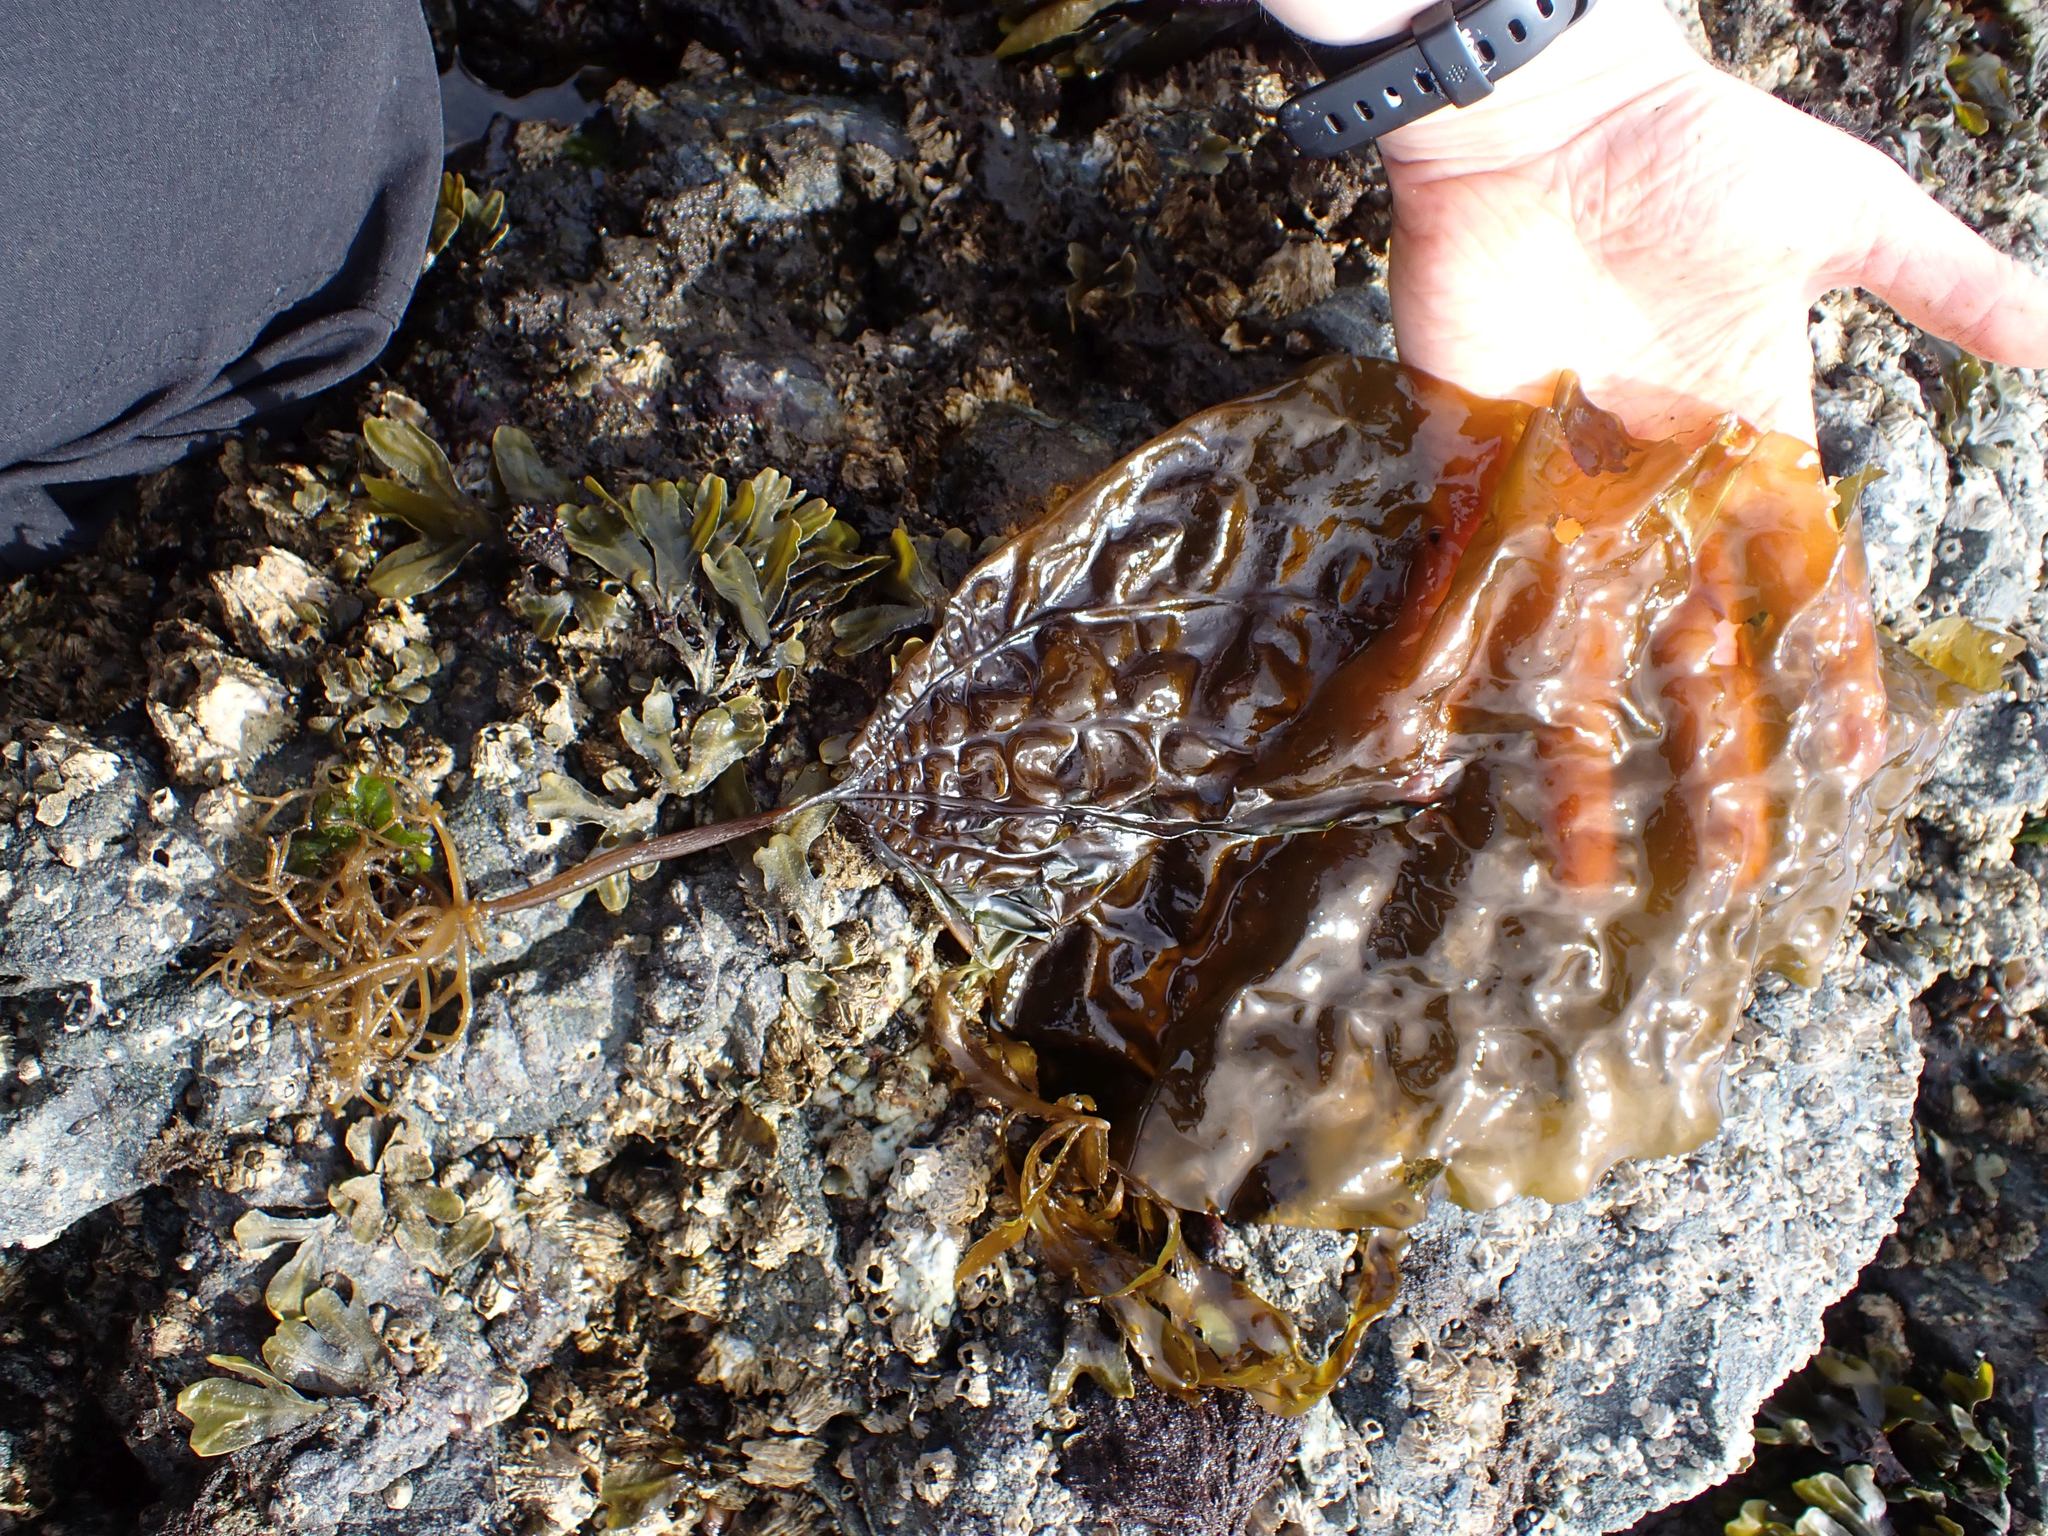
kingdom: Chromista
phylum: Ochrophyta
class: Phaeophyceae
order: Laminariales
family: Costariaceae
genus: Costaria
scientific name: Costaria costata
